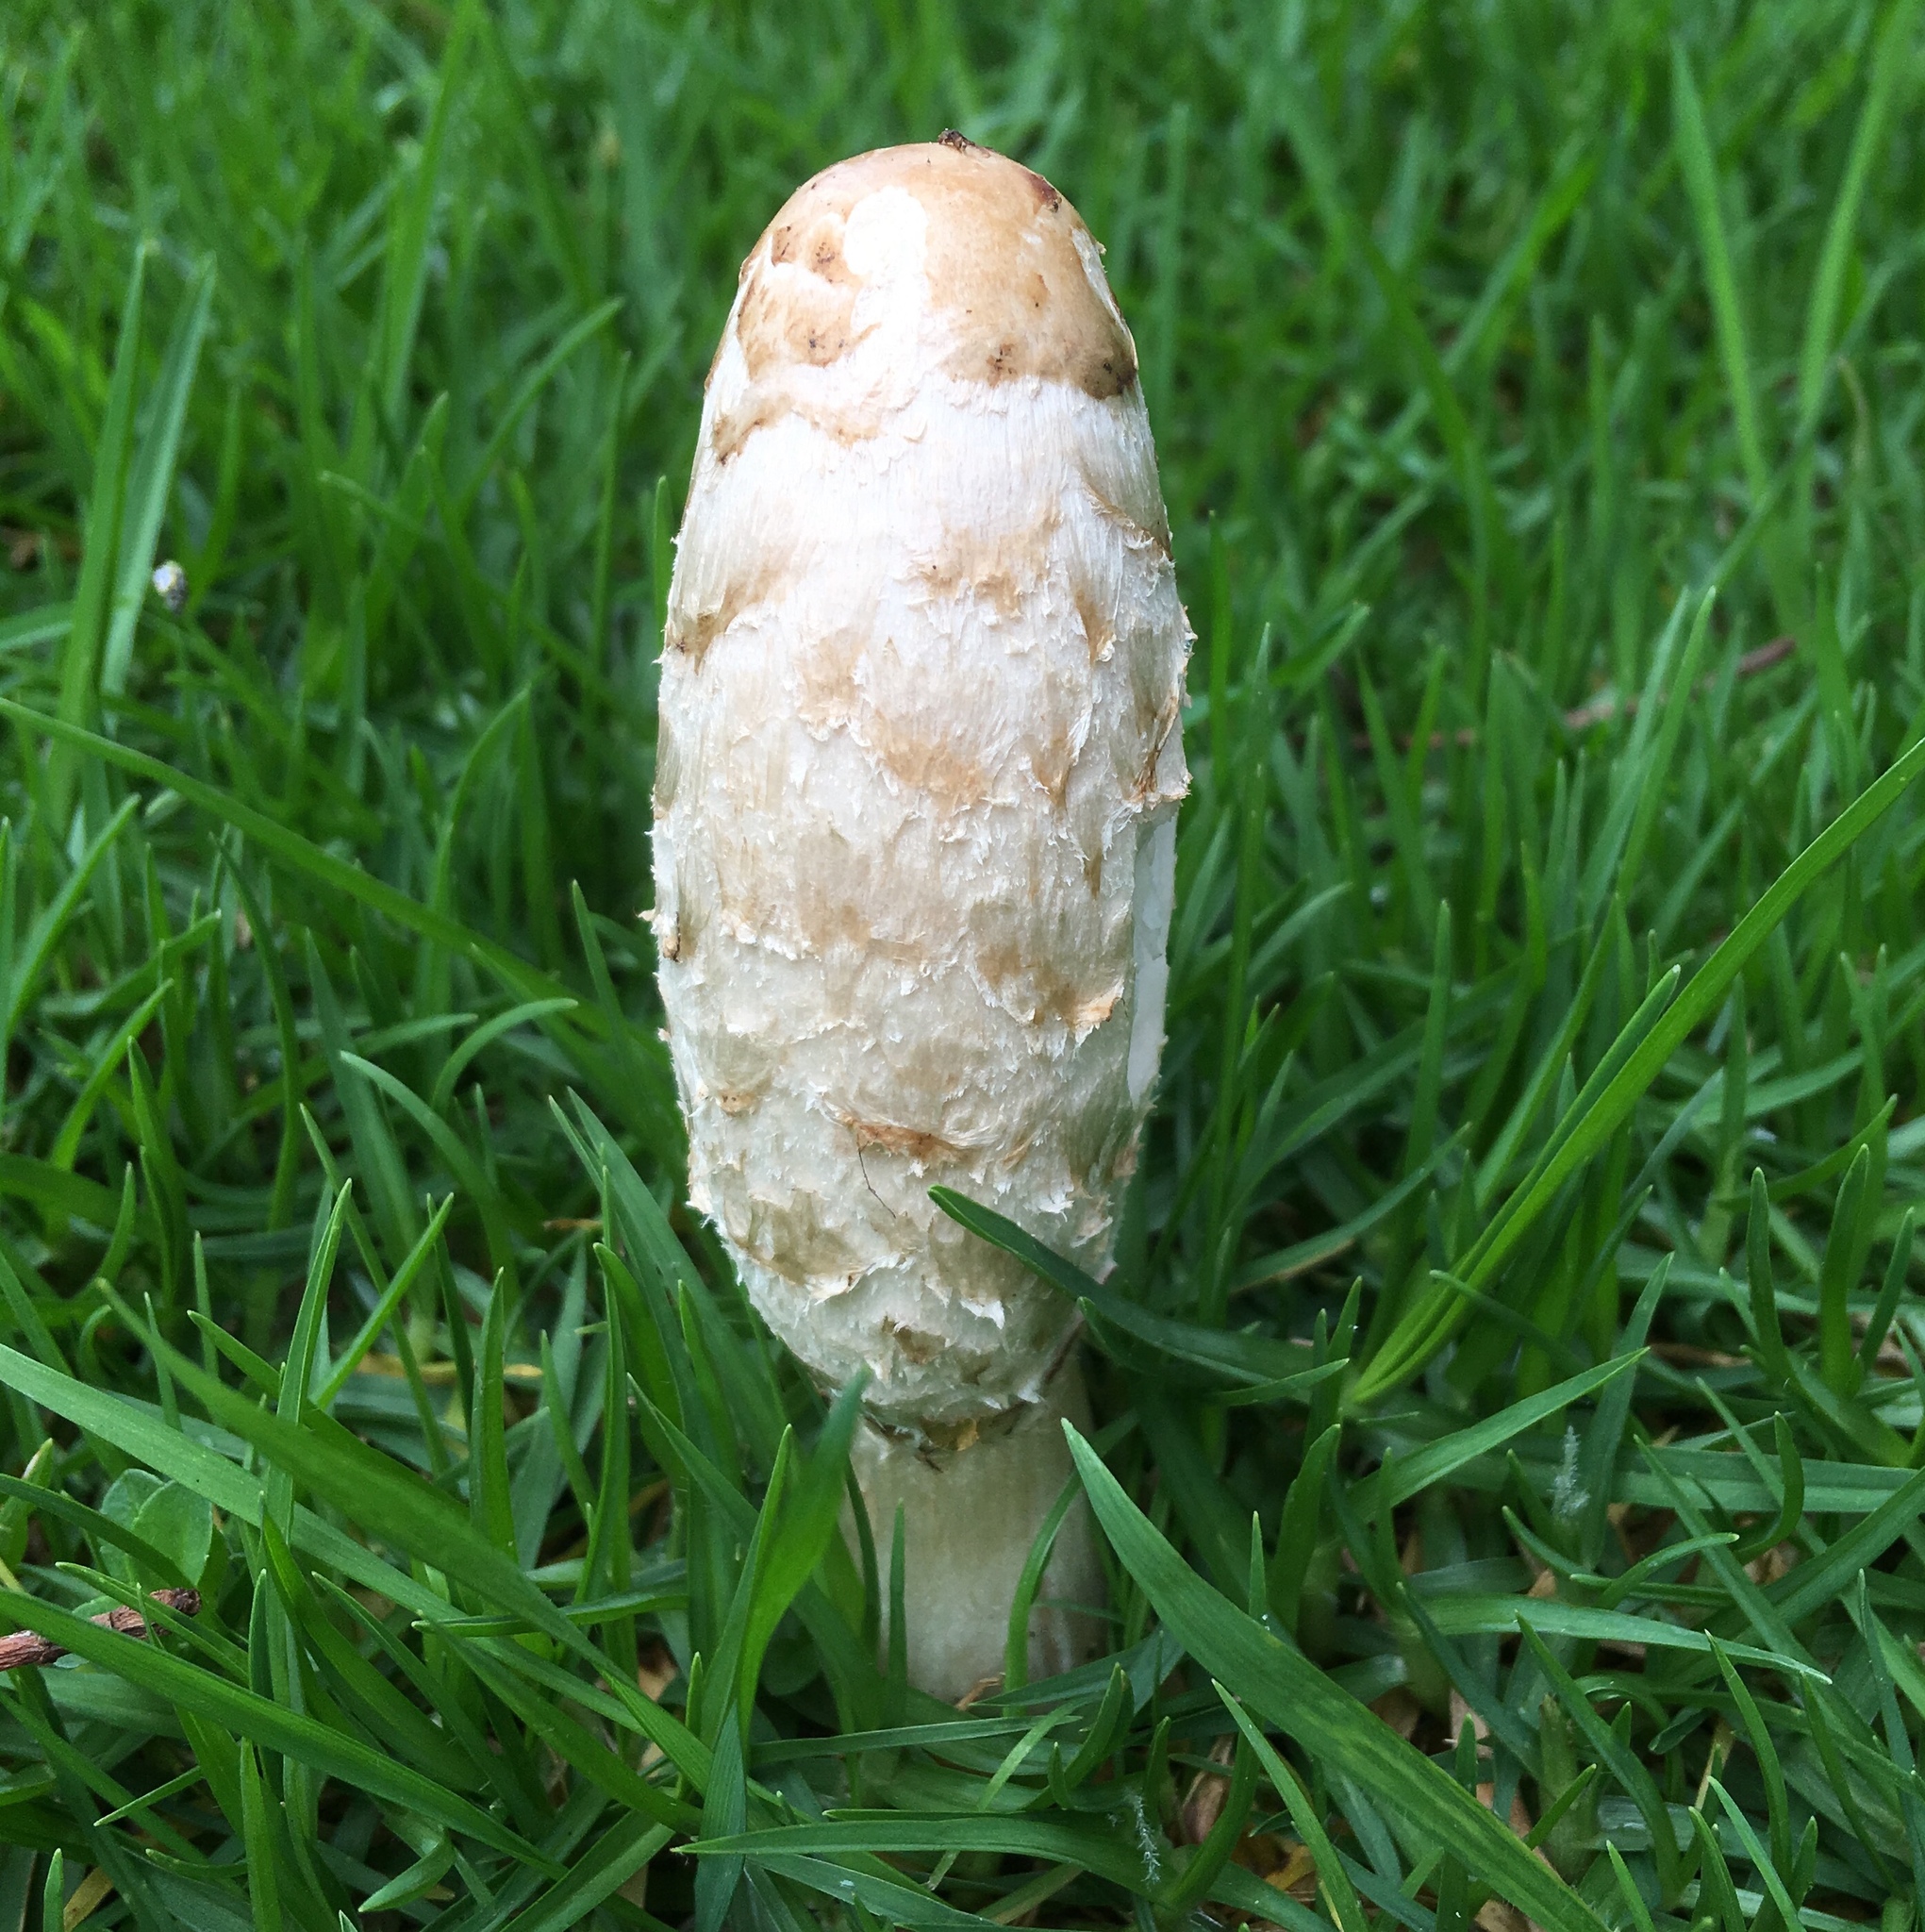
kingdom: Fungi
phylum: Basidiomycota
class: Agaricomycetes
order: Agaricales
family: Agaricaceae
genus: Coprinus
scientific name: Coprinus comatus
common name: Lawyer's wig
